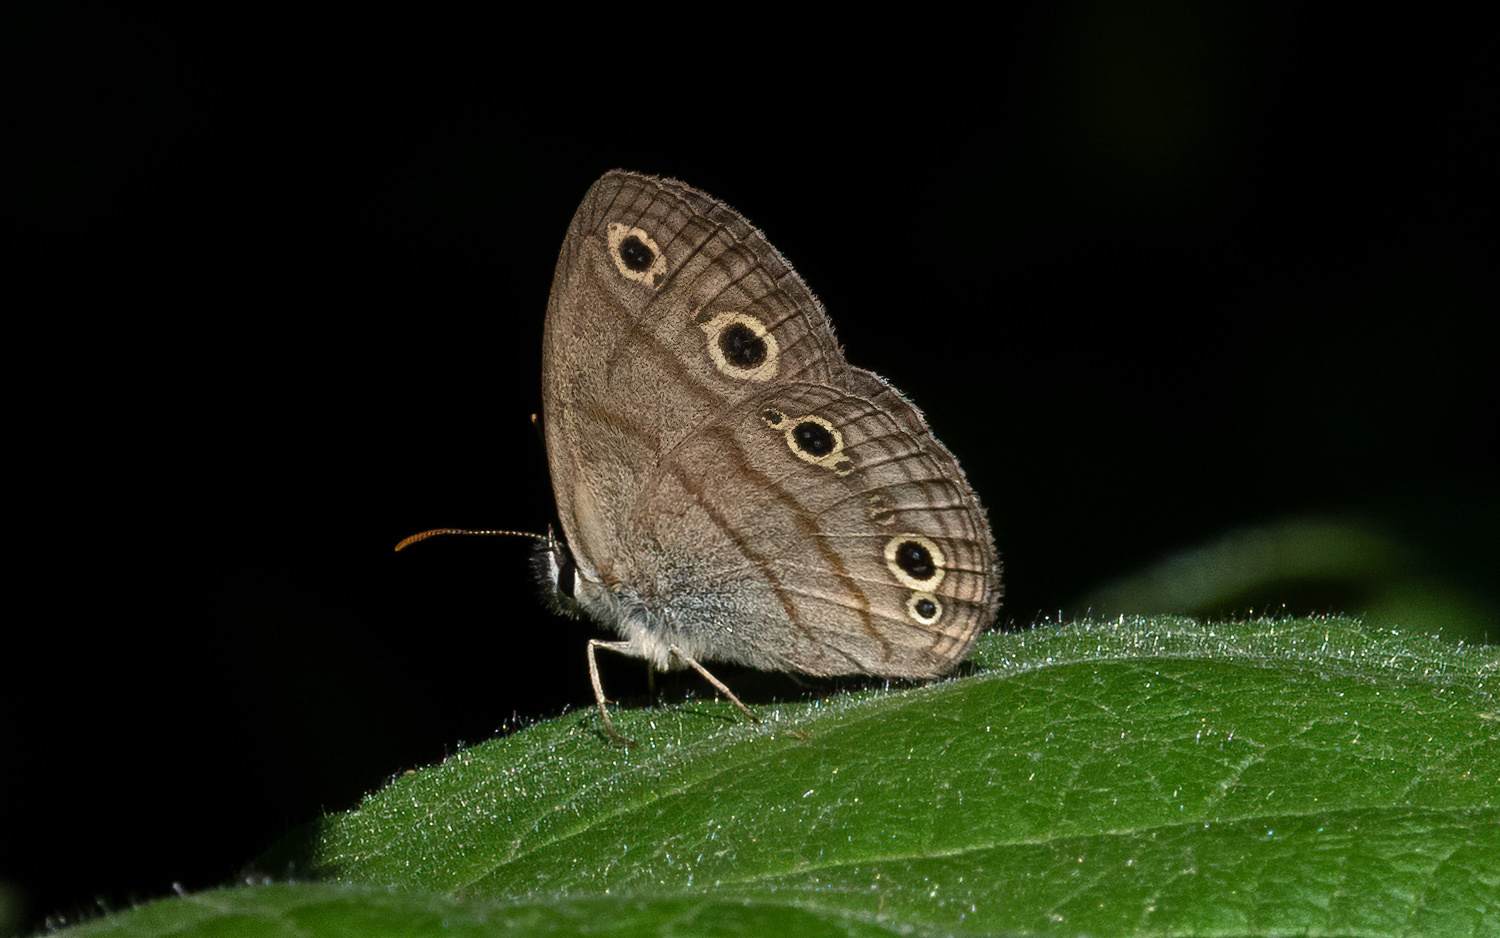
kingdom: Animalia
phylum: Arthropoda
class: Insecta
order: Lepidoptera
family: Nymphalidae
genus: Euptychia
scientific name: Euptychia cymela
